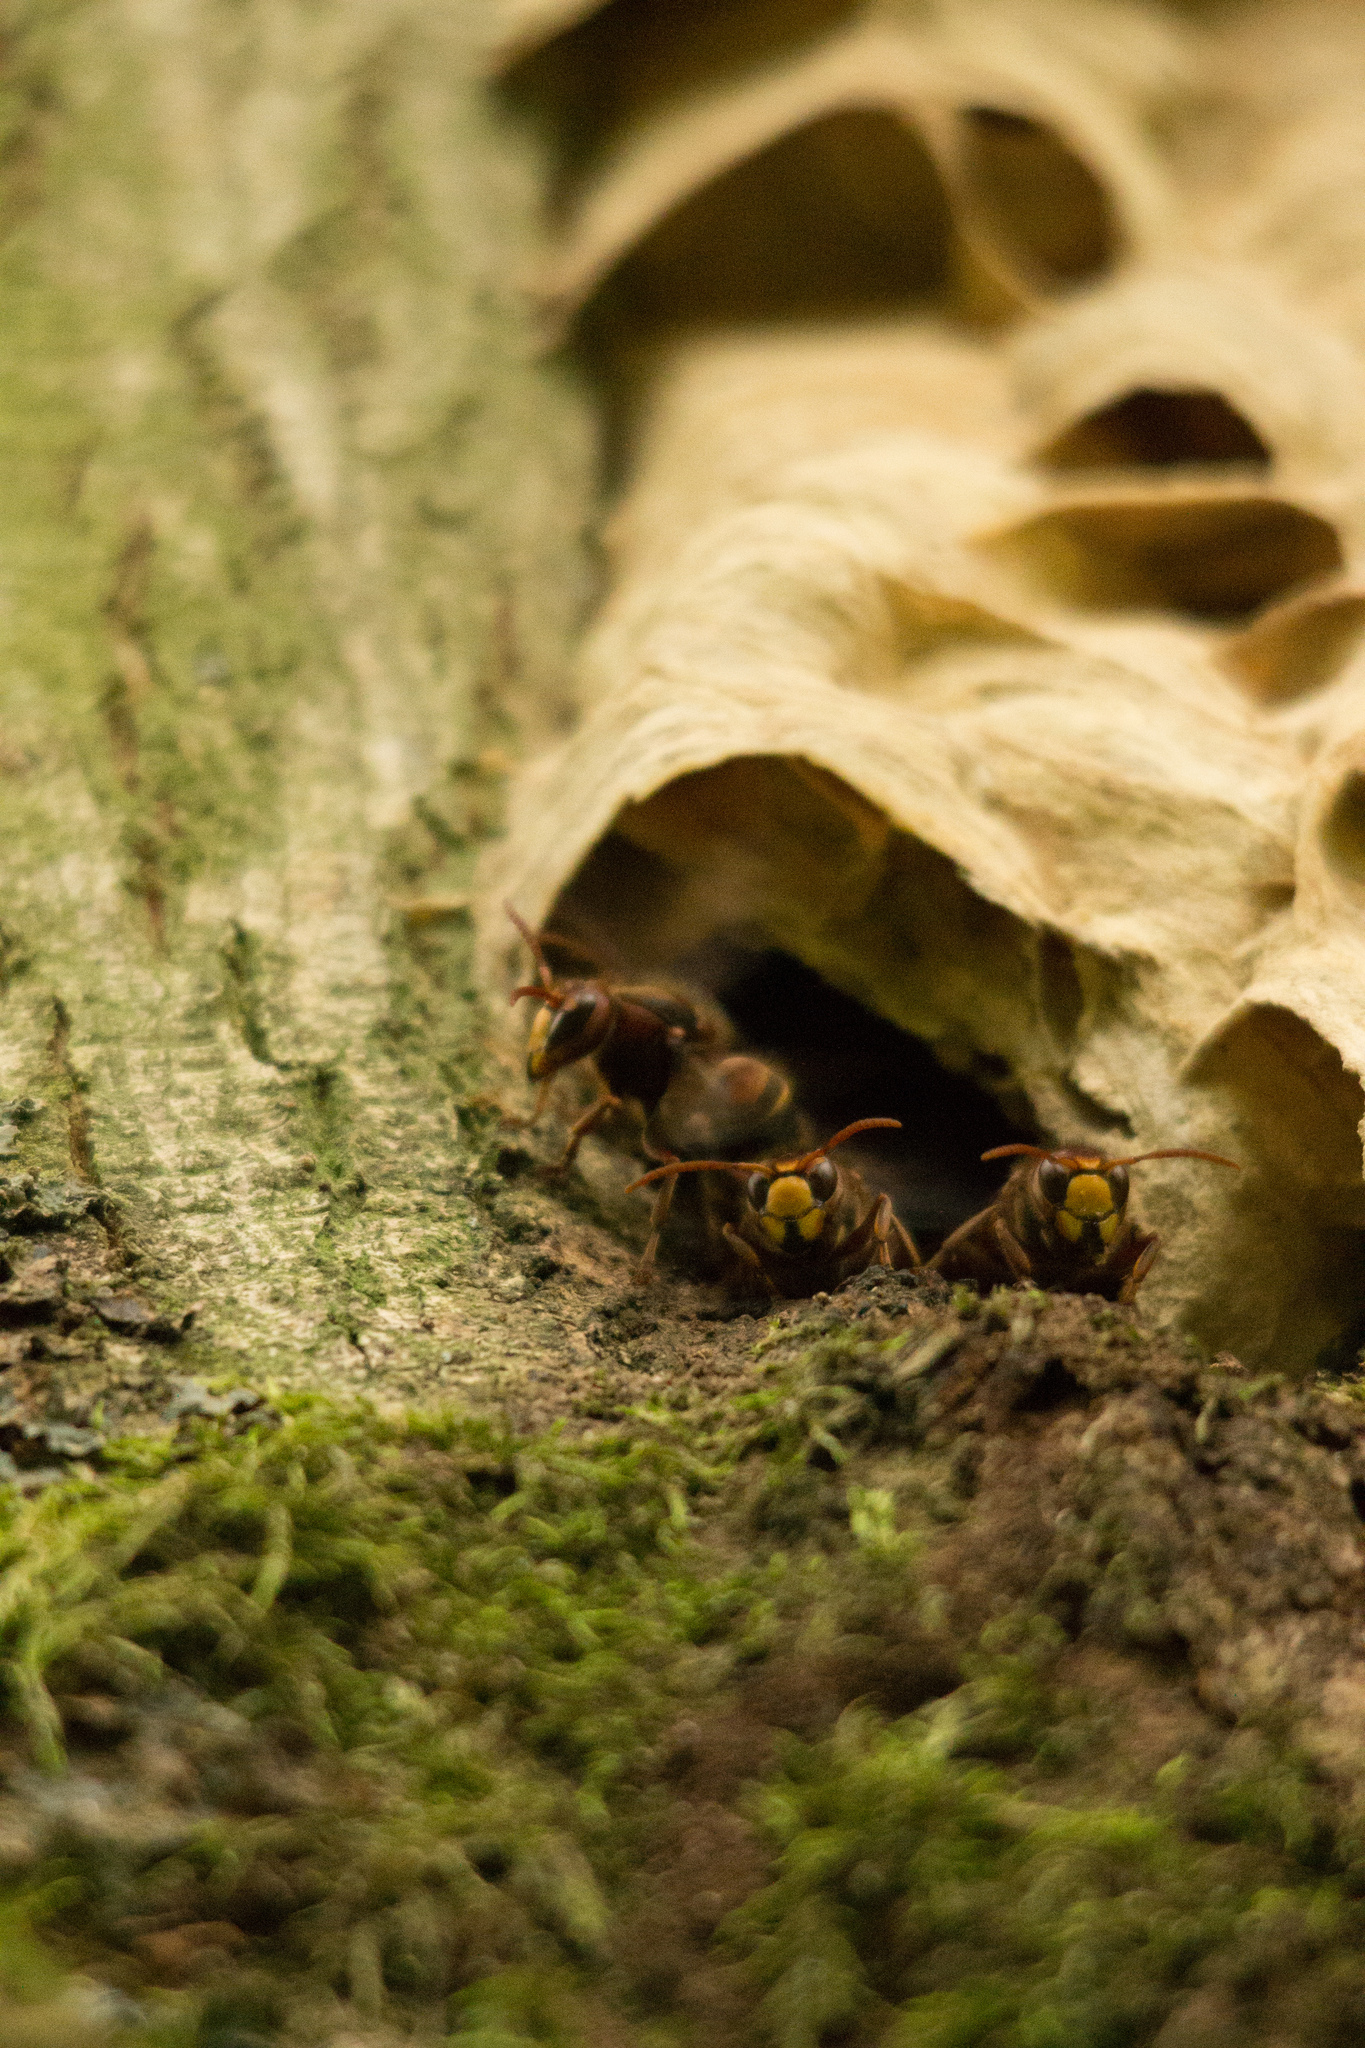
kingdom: Animalia
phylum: Arthropoda
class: Insecta
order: Hymenoptera
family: Vespidae
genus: Vespa
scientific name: Vespa crabro
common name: Hornet
